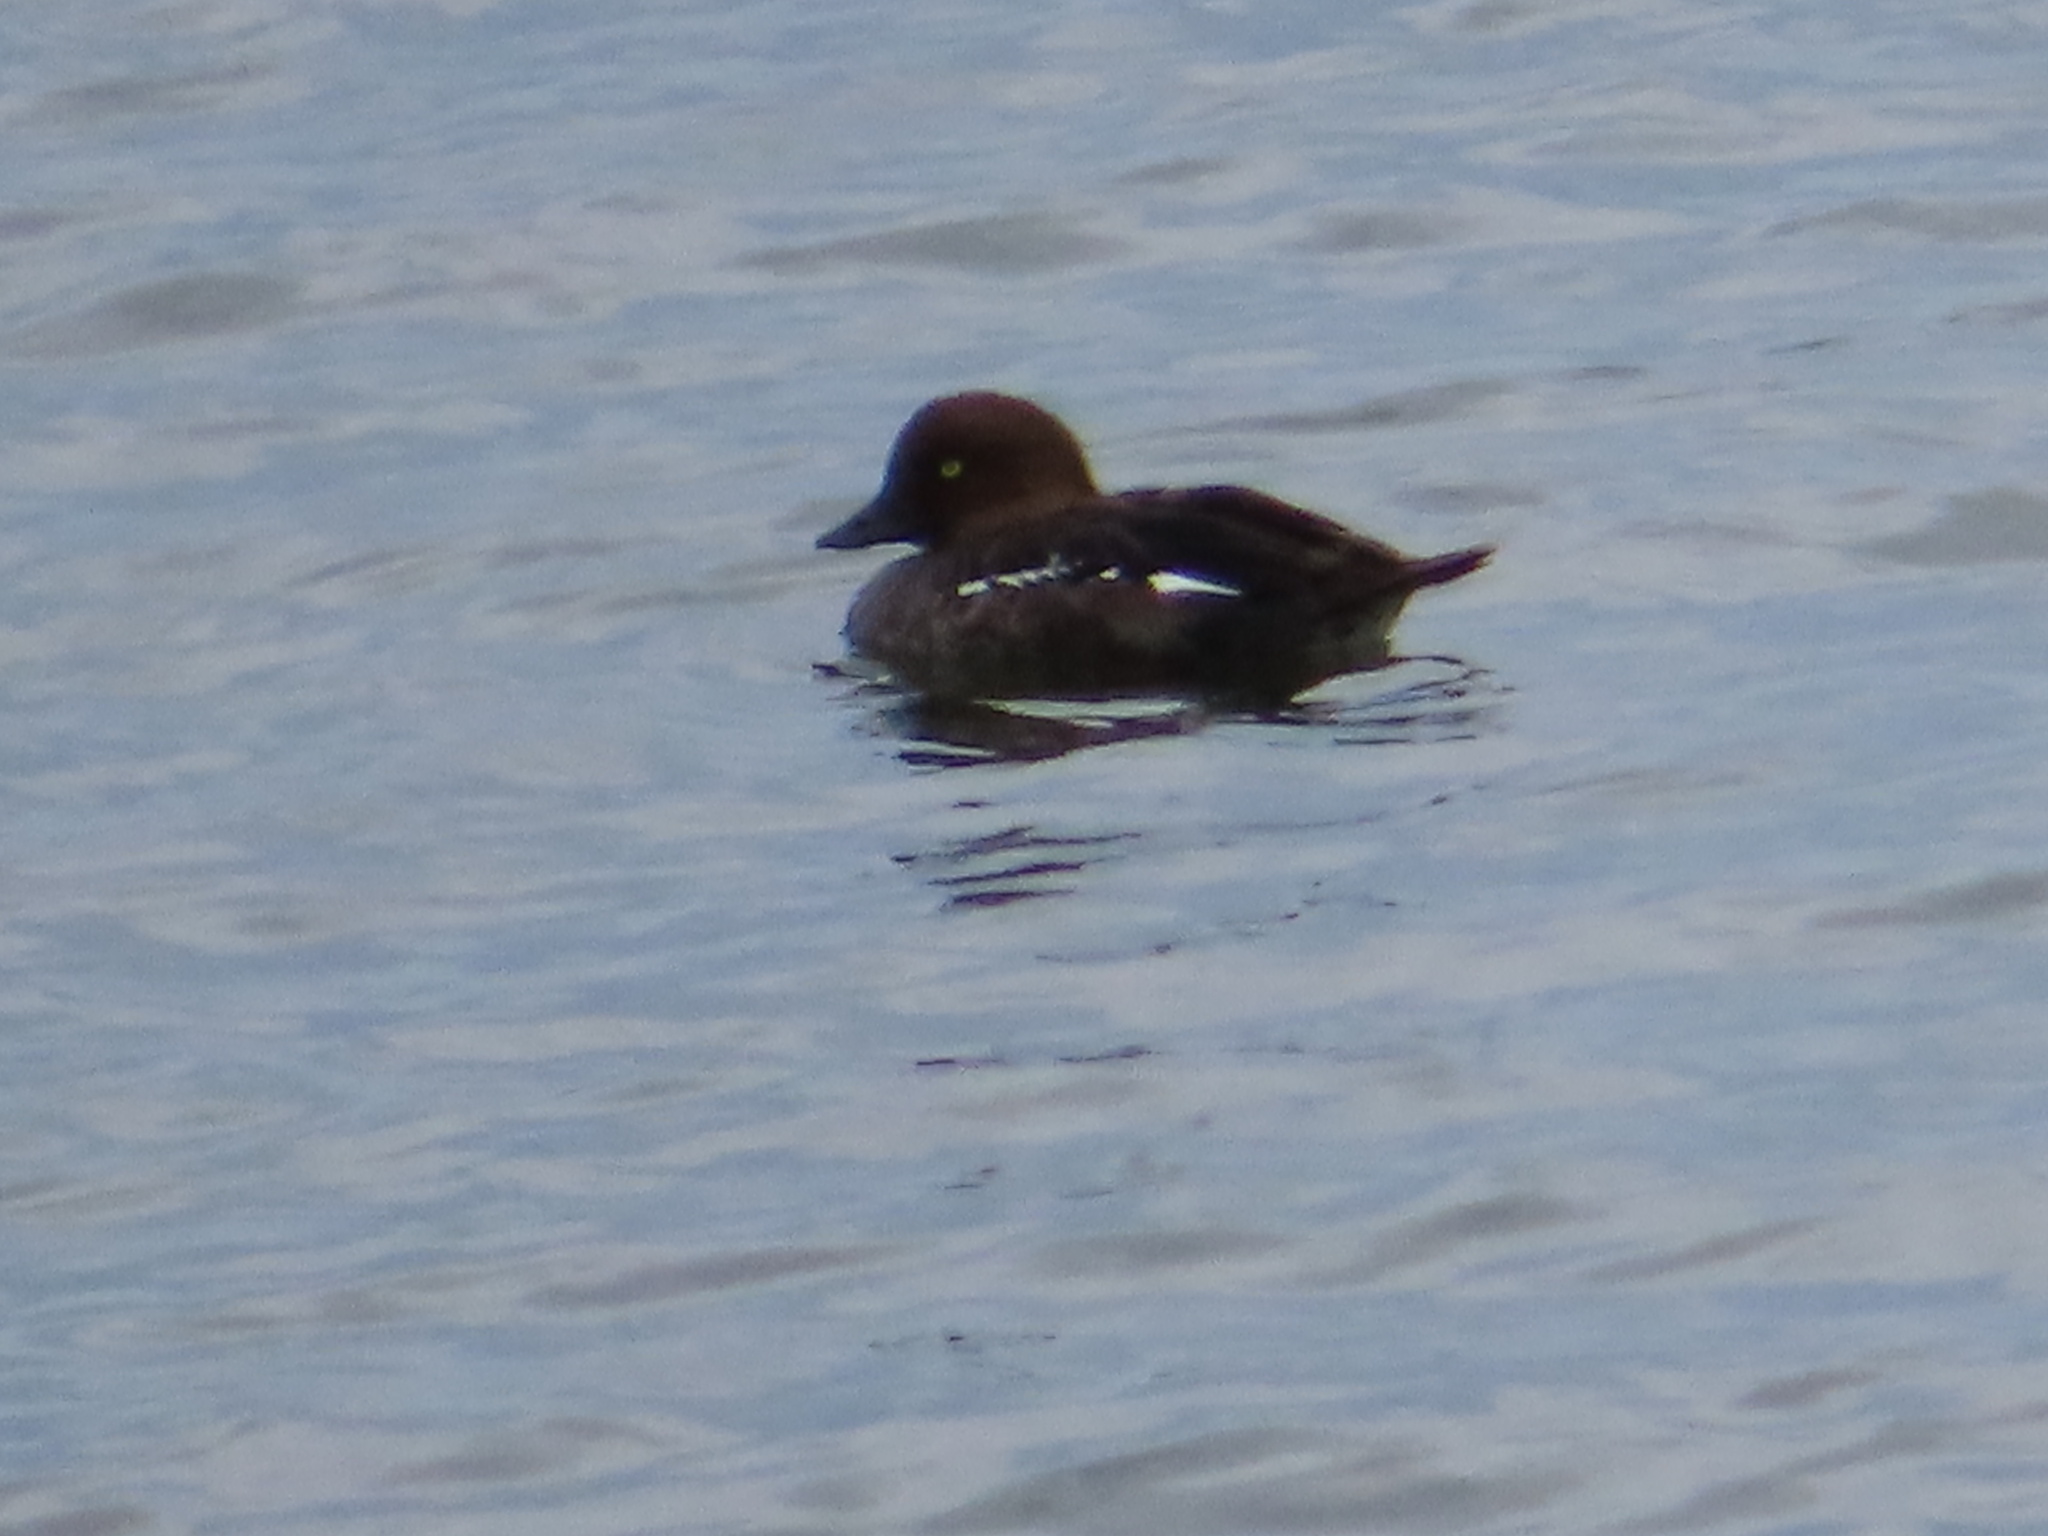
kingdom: Animalia
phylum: Chordata
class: Aves
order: Anseriformes
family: Anatidae
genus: Bucephala
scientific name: Bucephala clangula
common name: Common goldeneye
